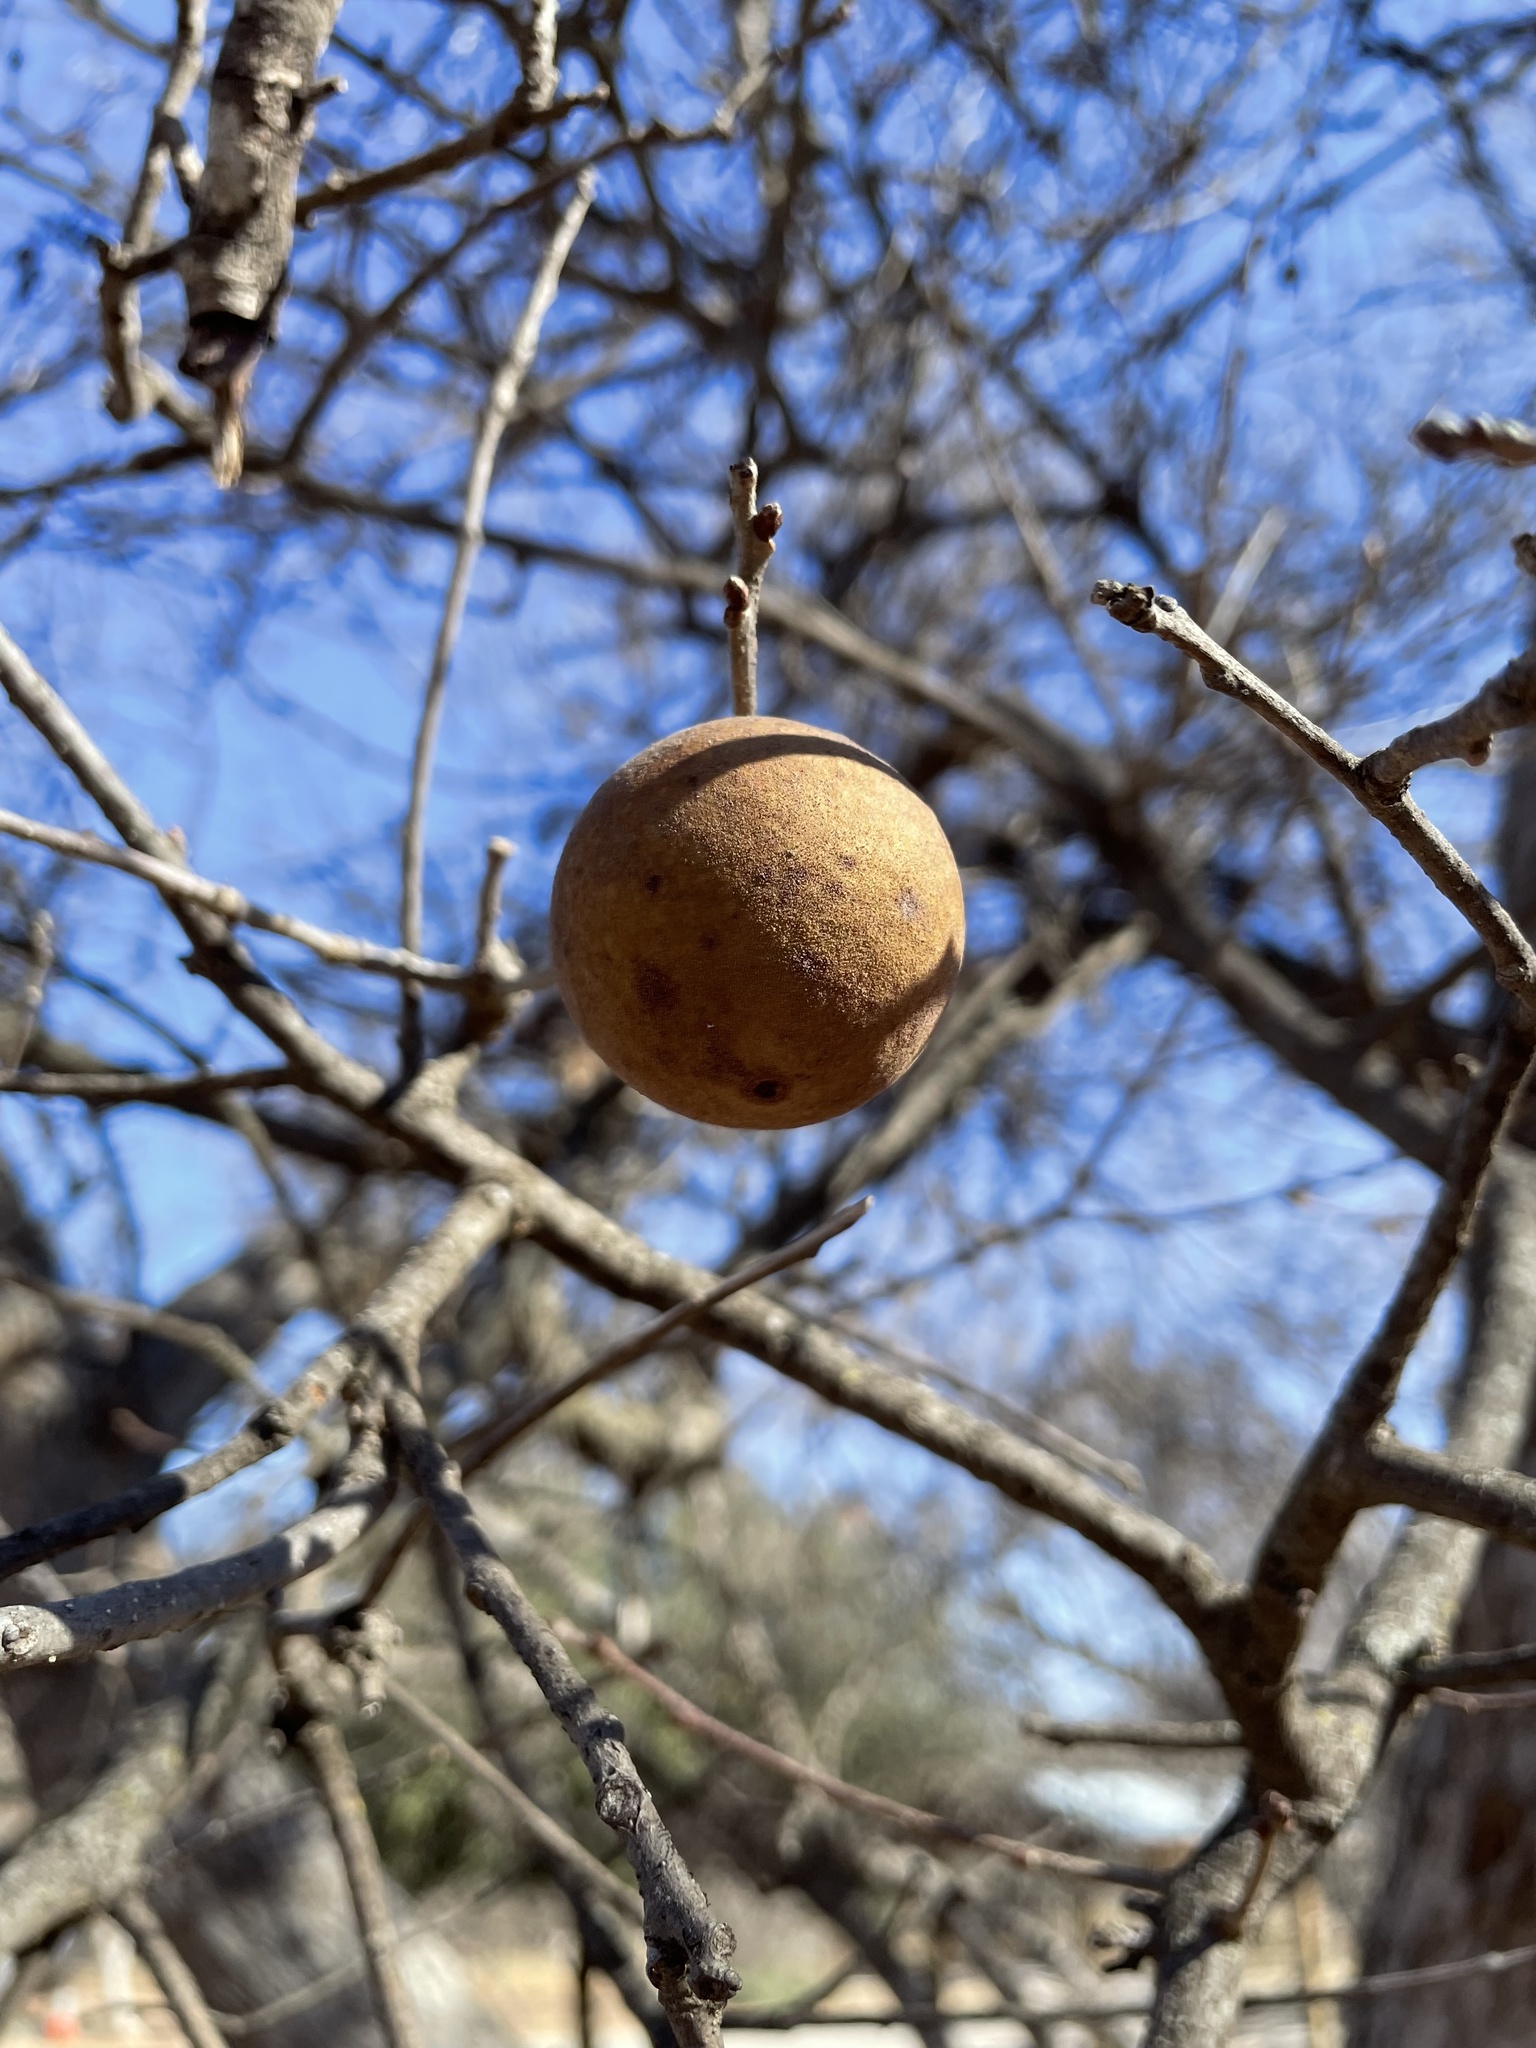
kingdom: Animalia
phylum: Arthropoda
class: Insecta
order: Hymenoptera
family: Cynipidae
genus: Disholcaspis
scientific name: Disholcaspis
